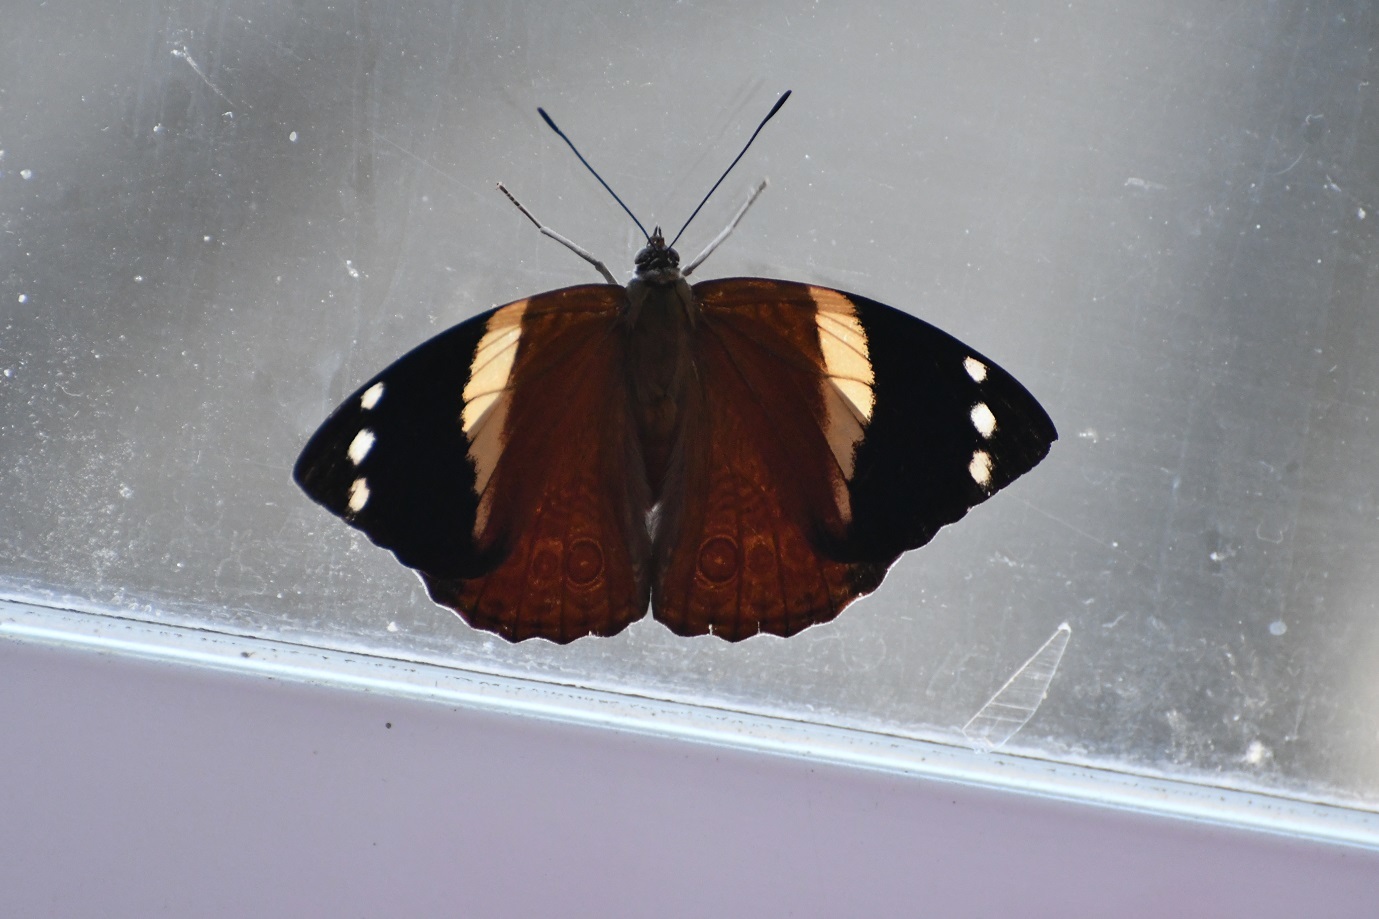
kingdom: Animalia
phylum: Arthropoda
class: Insecta
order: Lepidoptera
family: Nymphalidae
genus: Smyrna
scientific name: Smyrna karwinskii
